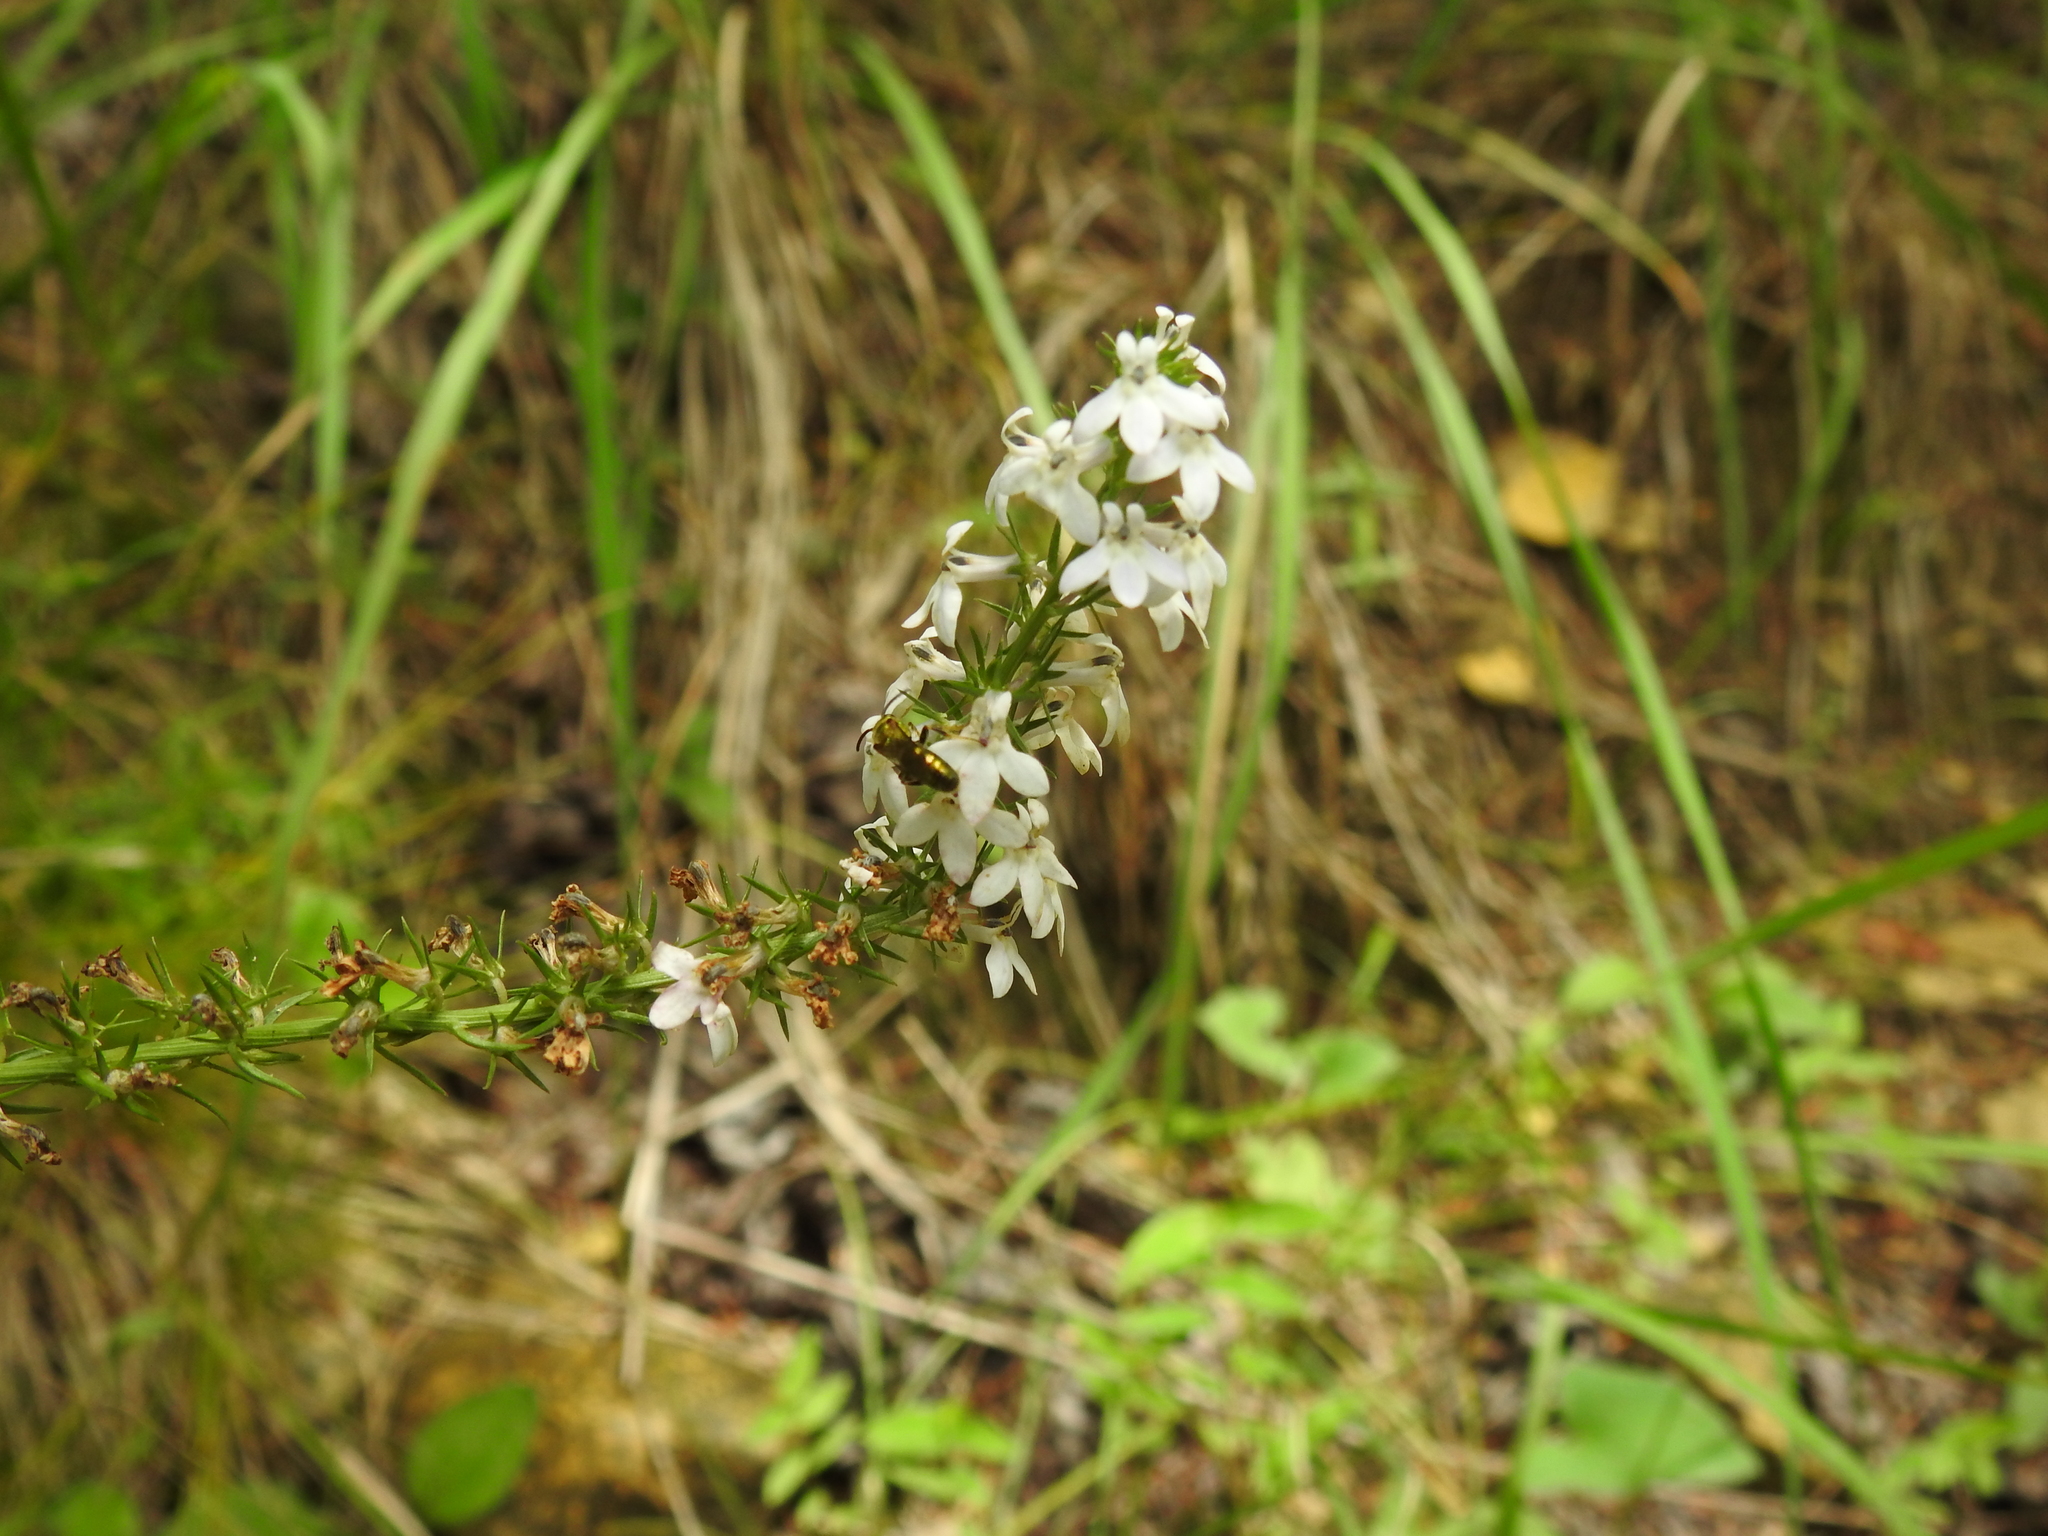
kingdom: Plantae
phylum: Tracheophyta
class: Magnoliopsida
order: Asterales
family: Campanulaceae
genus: Lobelia
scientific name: Lobelia spicata
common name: Pale-spike lobelia
